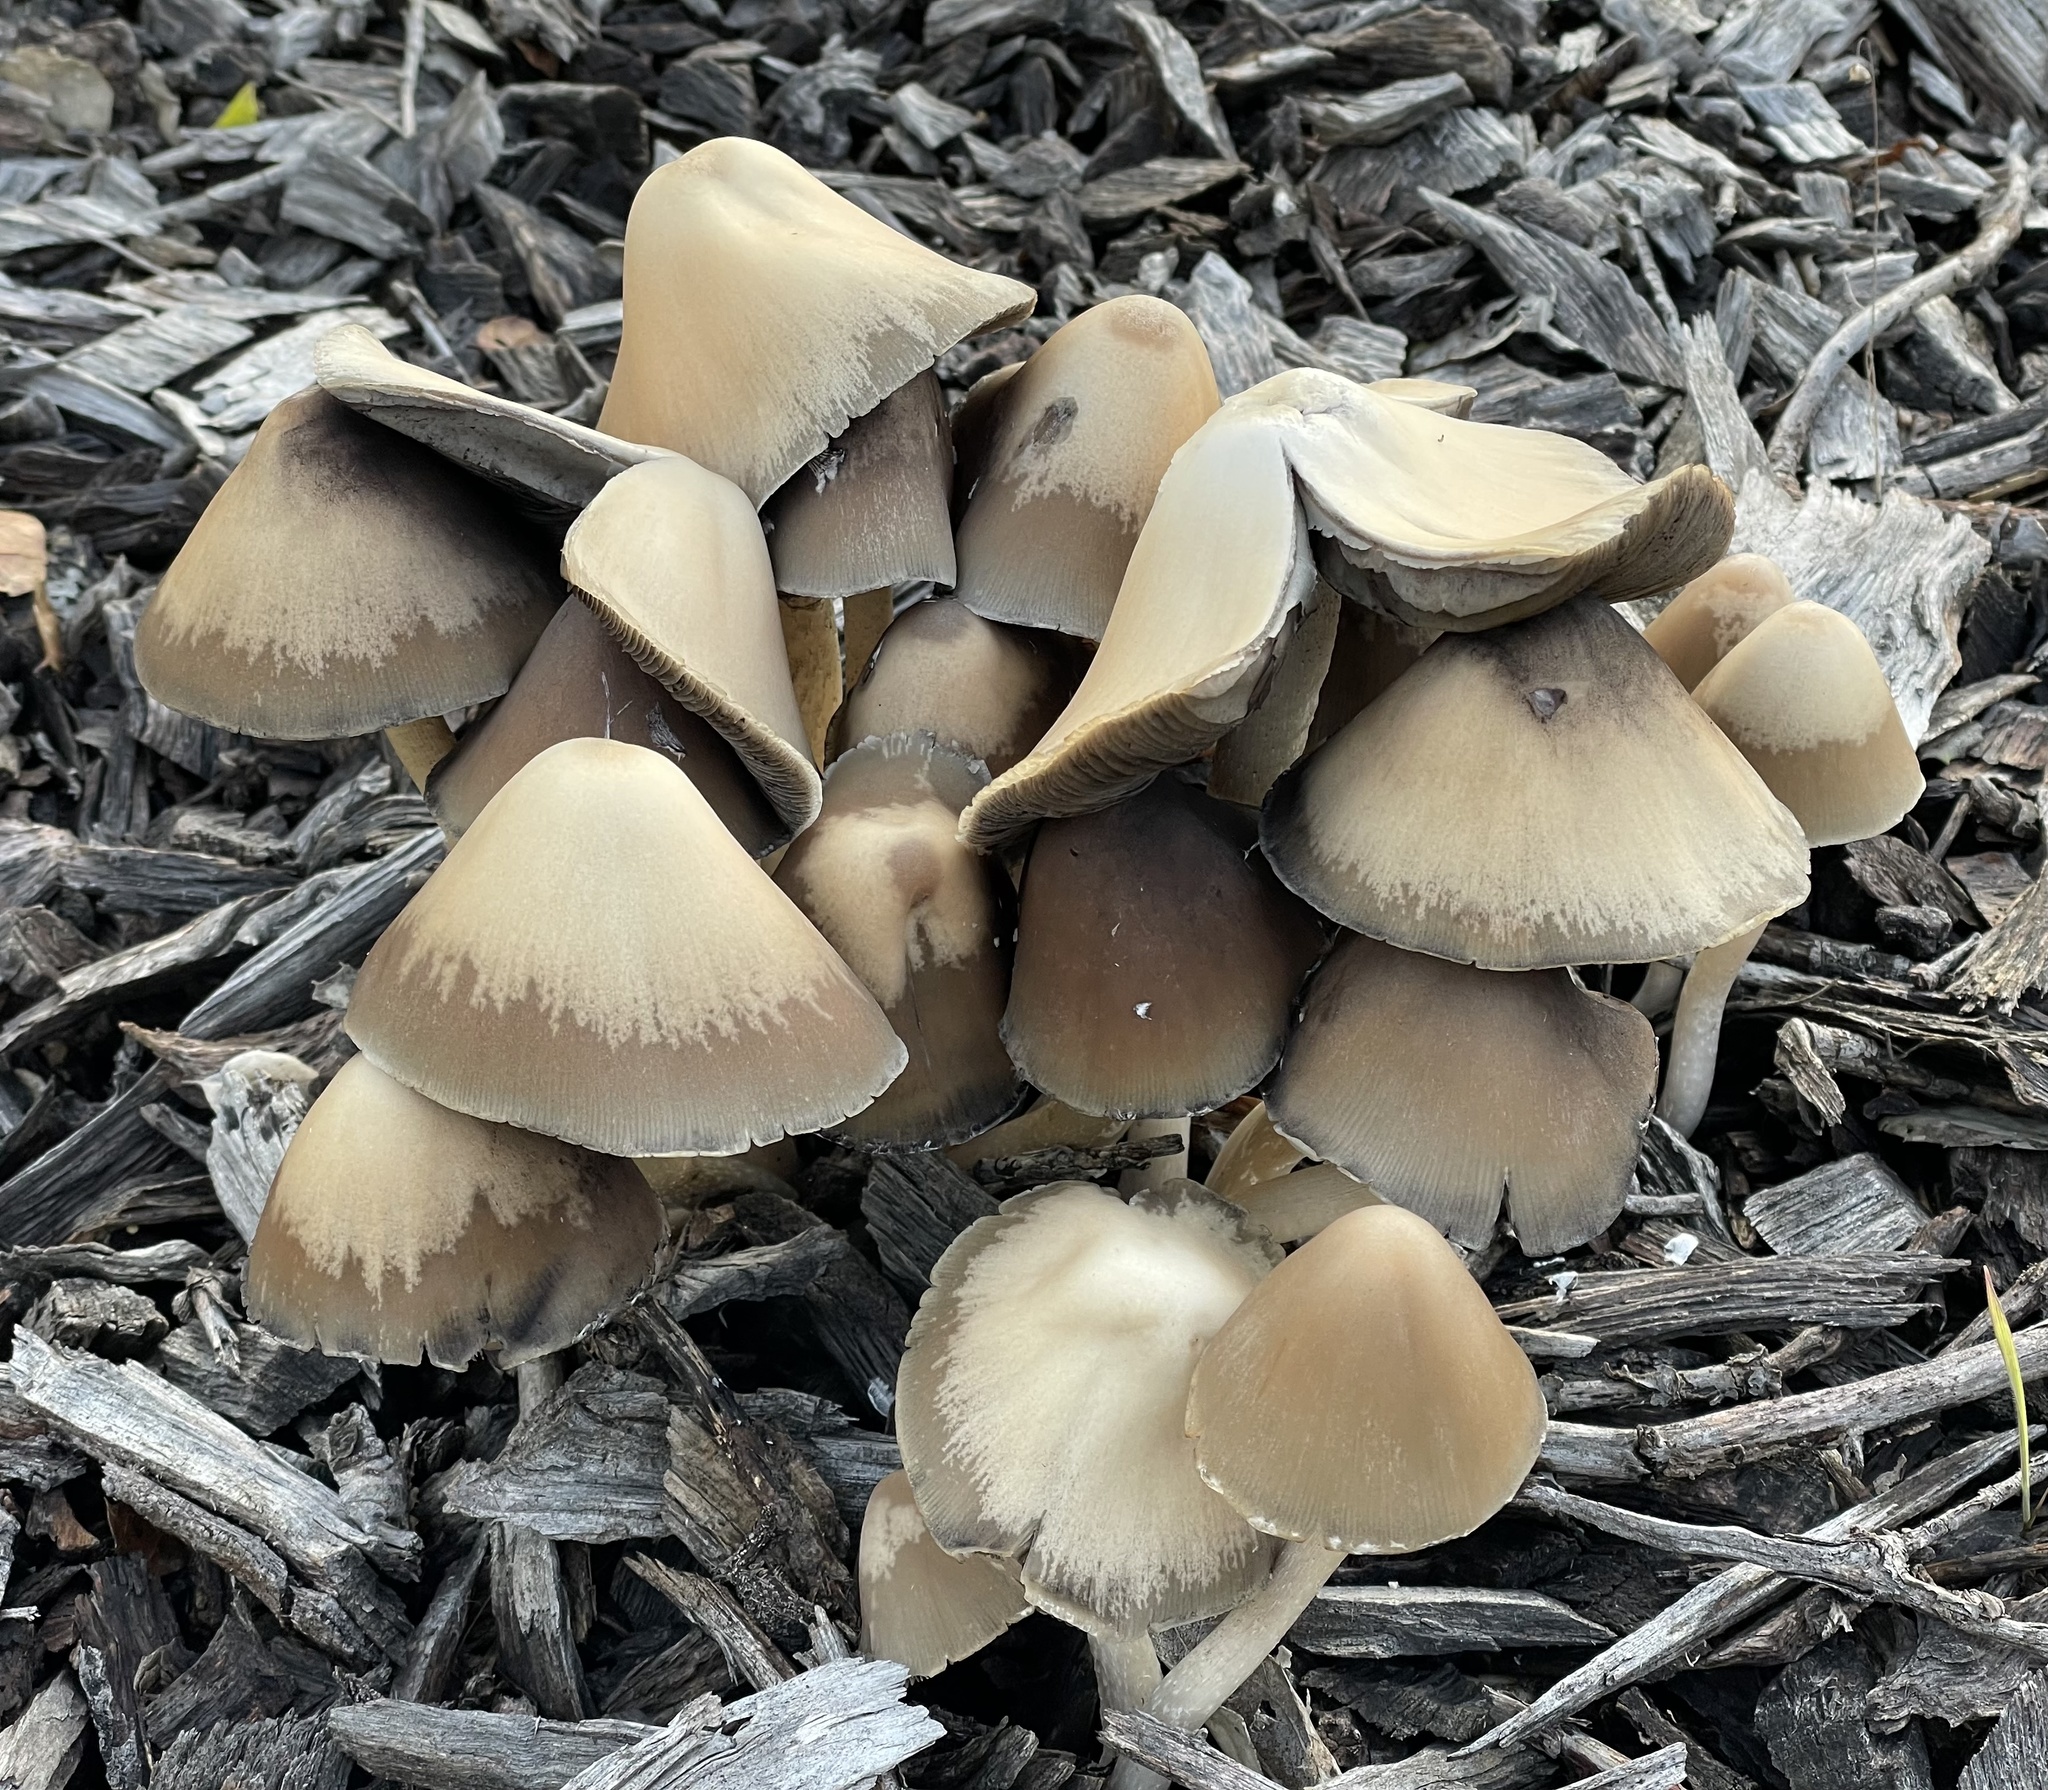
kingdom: Fungi
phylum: Basidiomycota
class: Agaricomycetes
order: Agaricales
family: Psathyrellaceae
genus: Psathyrella
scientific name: Psathyrella longipes
